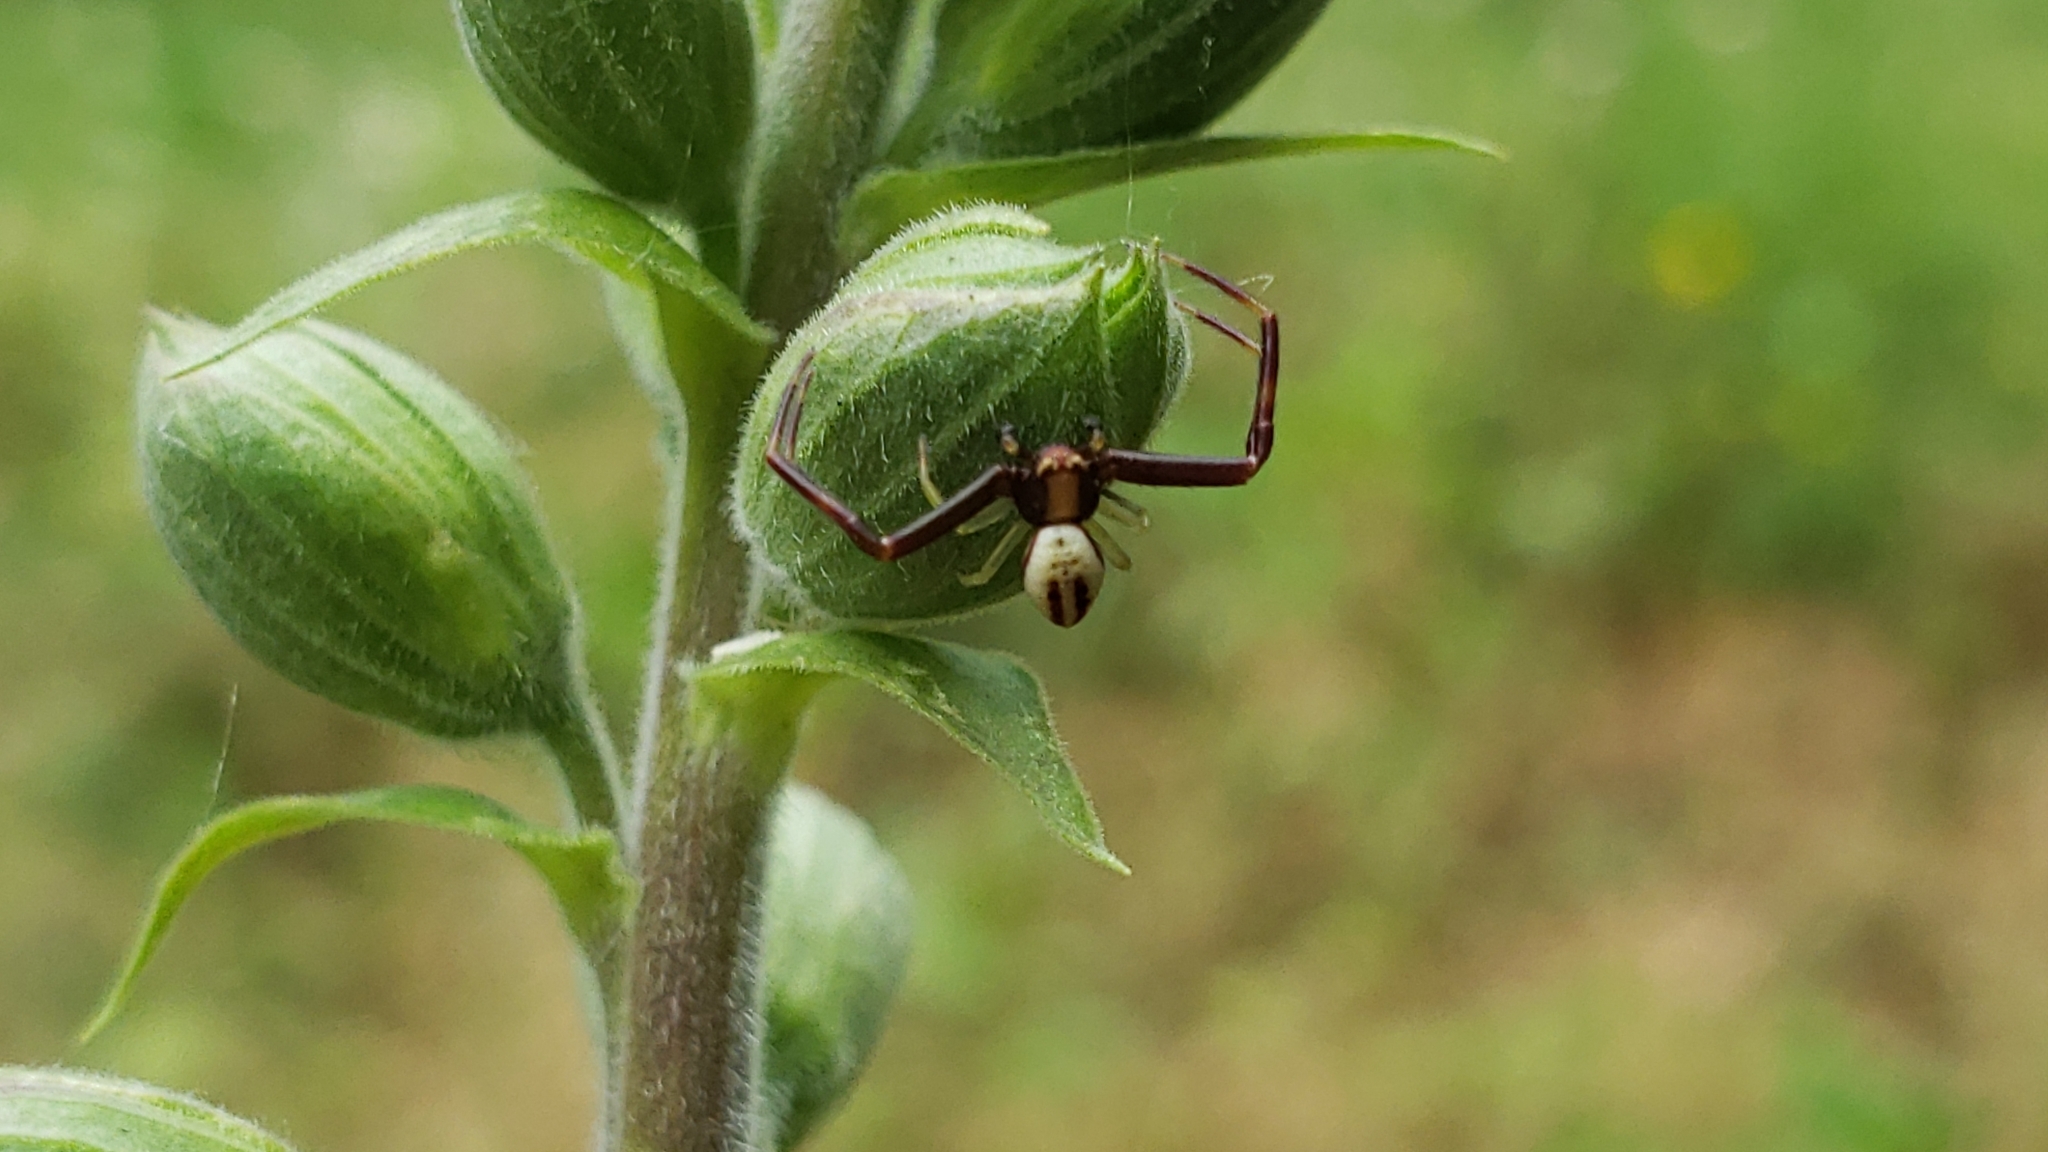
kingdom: Animalia
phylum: Arthropoda
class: Arachnida
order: Araneae
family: Thomisidae
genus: Misumena
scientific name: Misumena vatia
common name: Goldenrod crab spider
